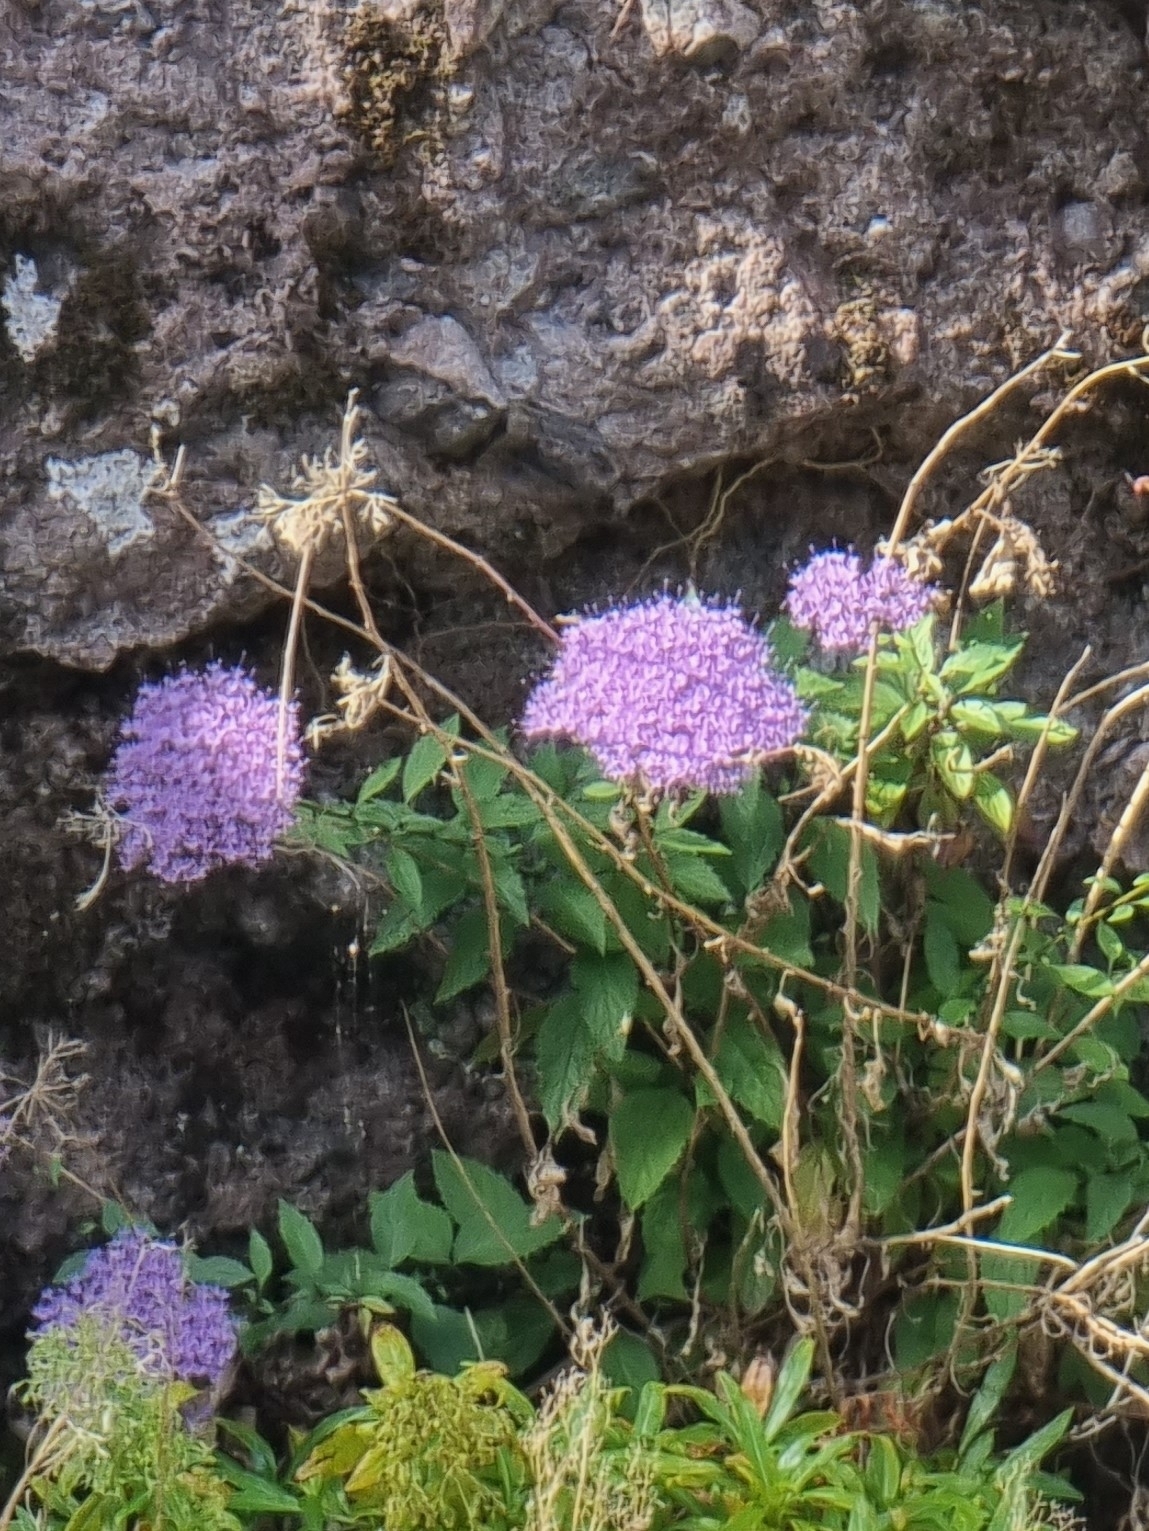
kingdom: Plantae
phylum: Tracheophyta
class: Magnoliopsida
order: Asterales
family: Campanulaceae
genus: Trachelium
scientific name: Trachelium caeruleum
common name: Throatwort
